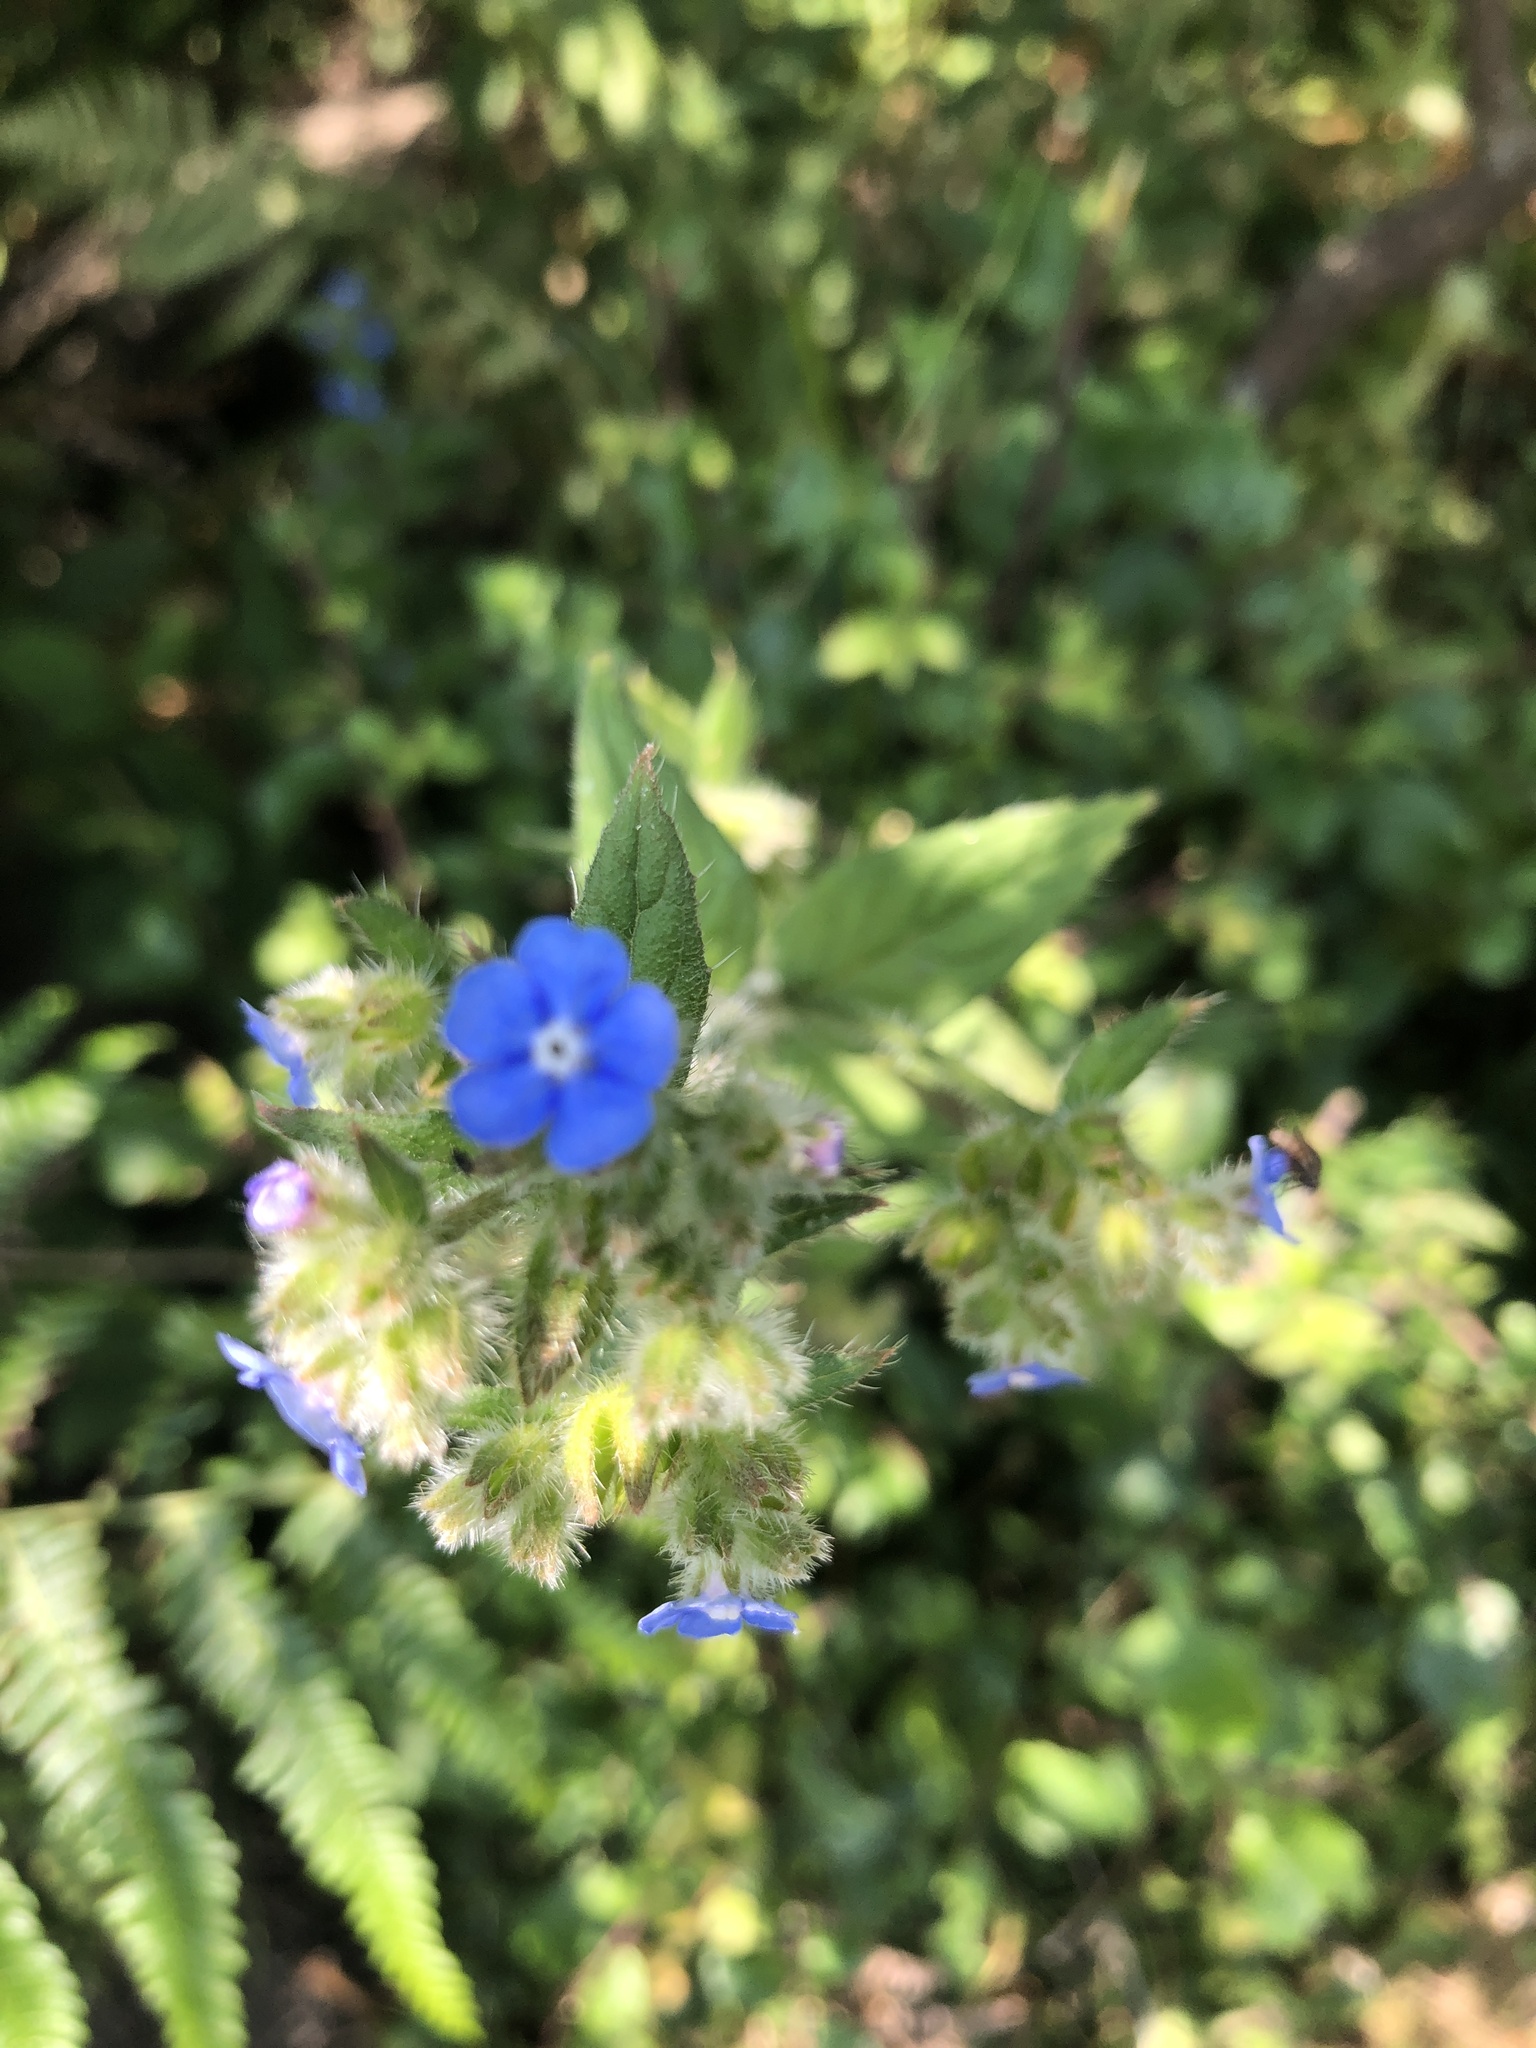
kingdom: Plantae
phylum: Tracheophyta
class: Magnoliopsida
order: Boraginales
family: Boraginaceae
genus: Pentaglottis
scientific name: Pentaglottis sempervirens
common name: Green alkanet
